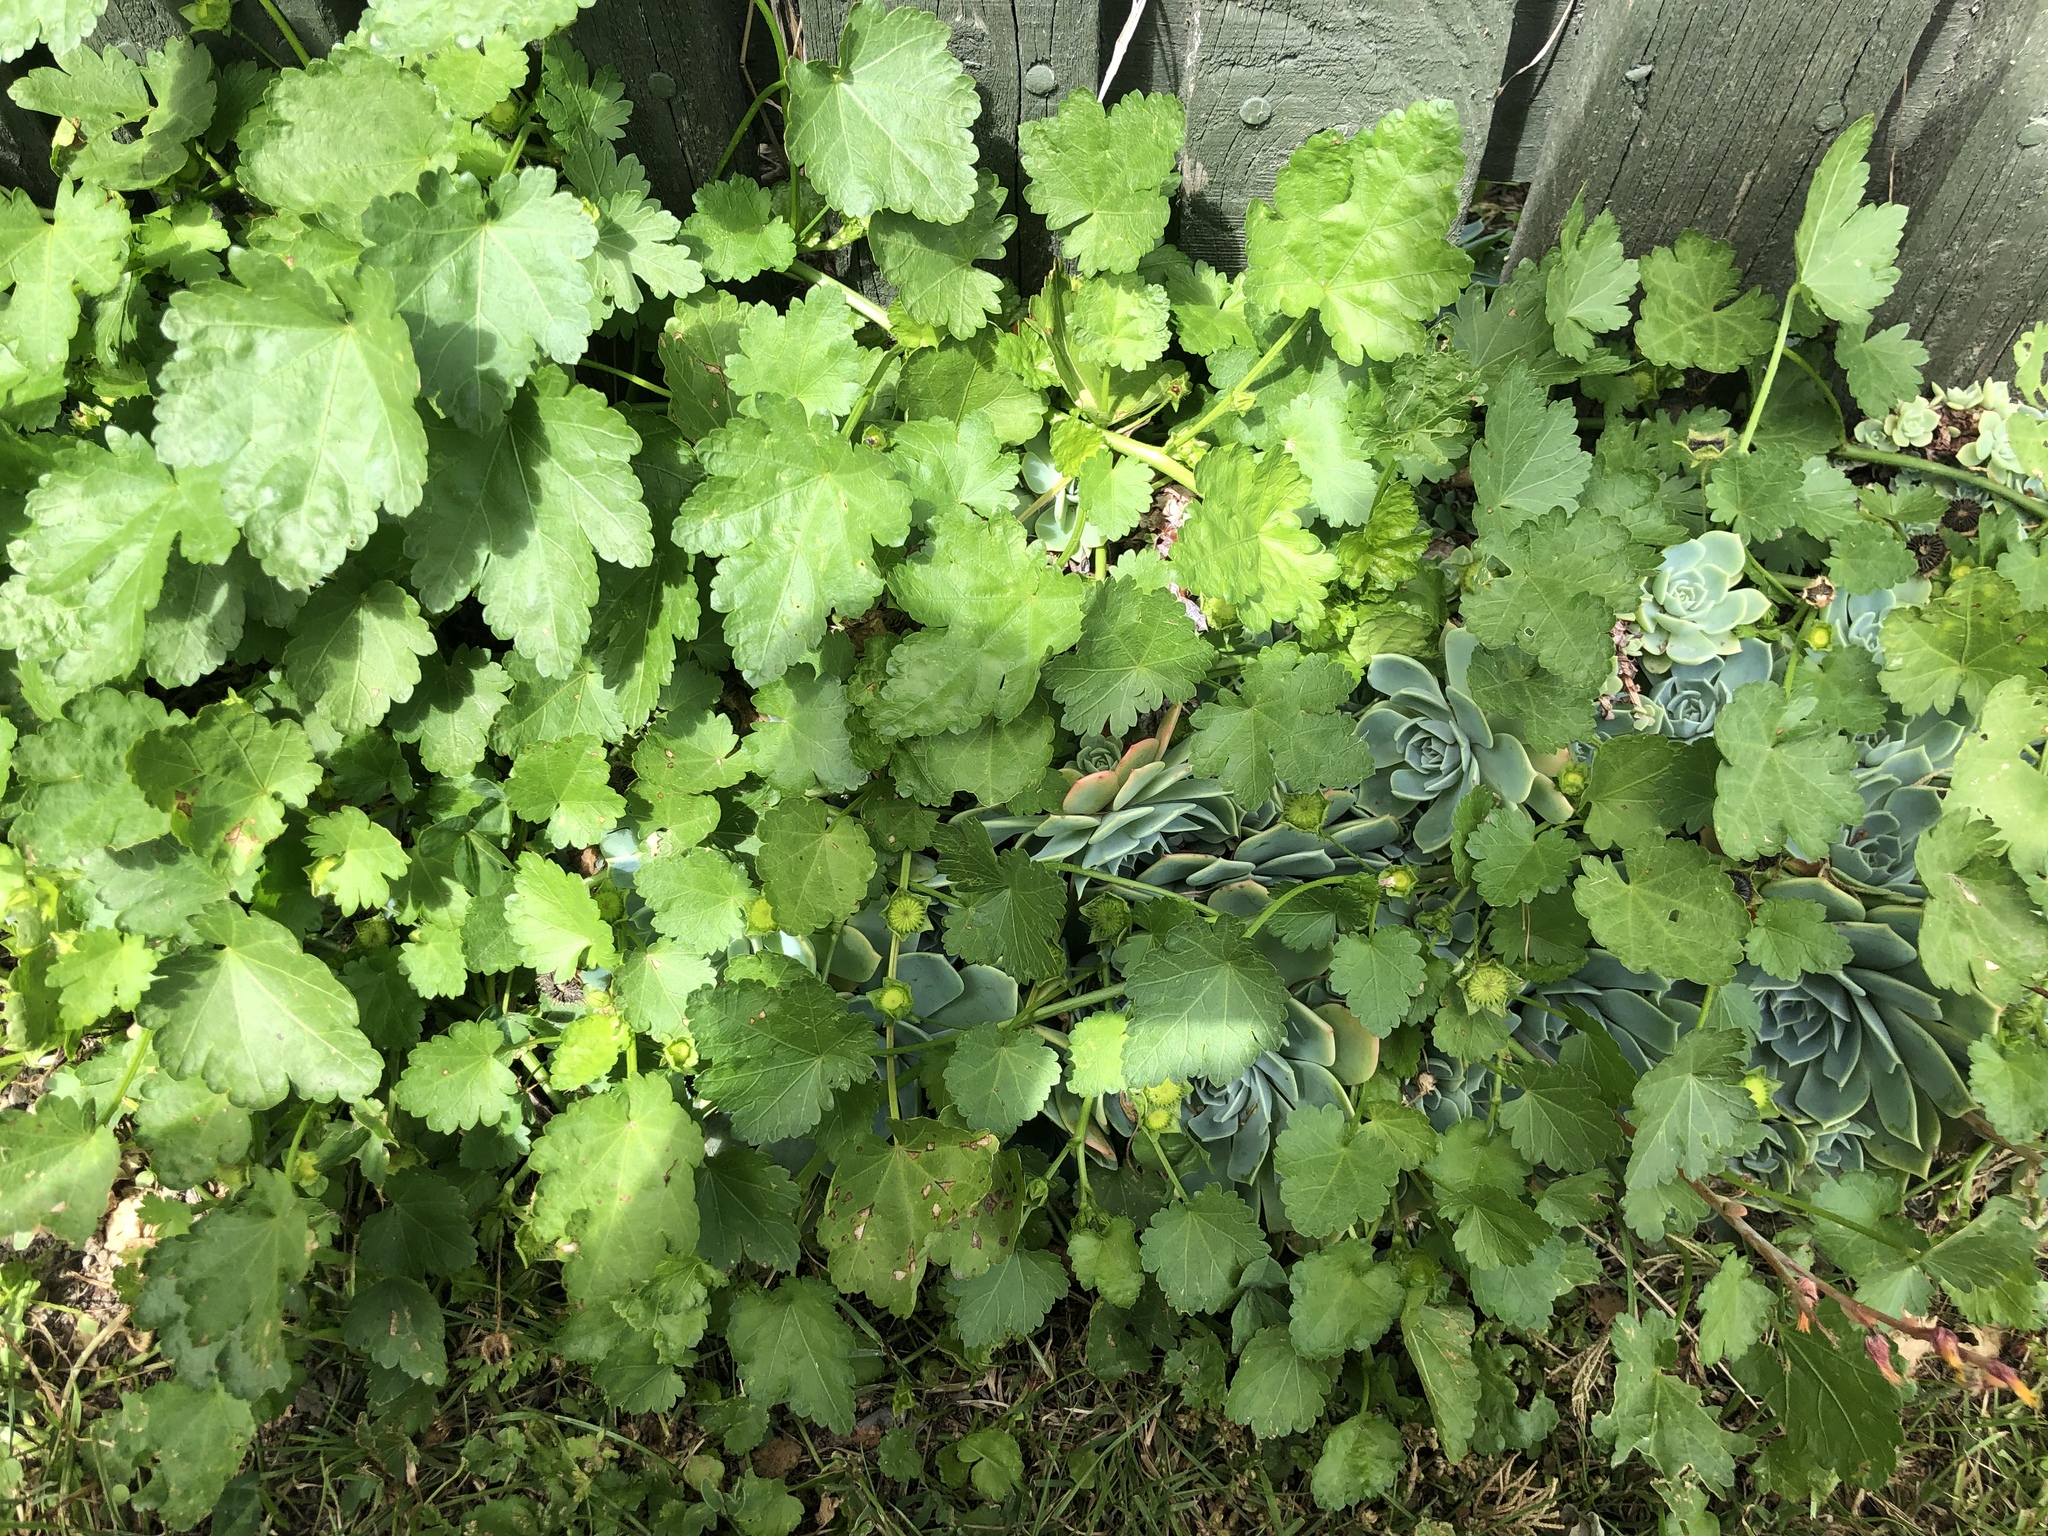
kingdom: Plantae
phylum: Tracheophyta
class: Magnoliopsida
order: Malvales
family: Malvaceae
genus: Modiola
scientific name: Modiola caroliniana
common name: Carolina bristlemallow
